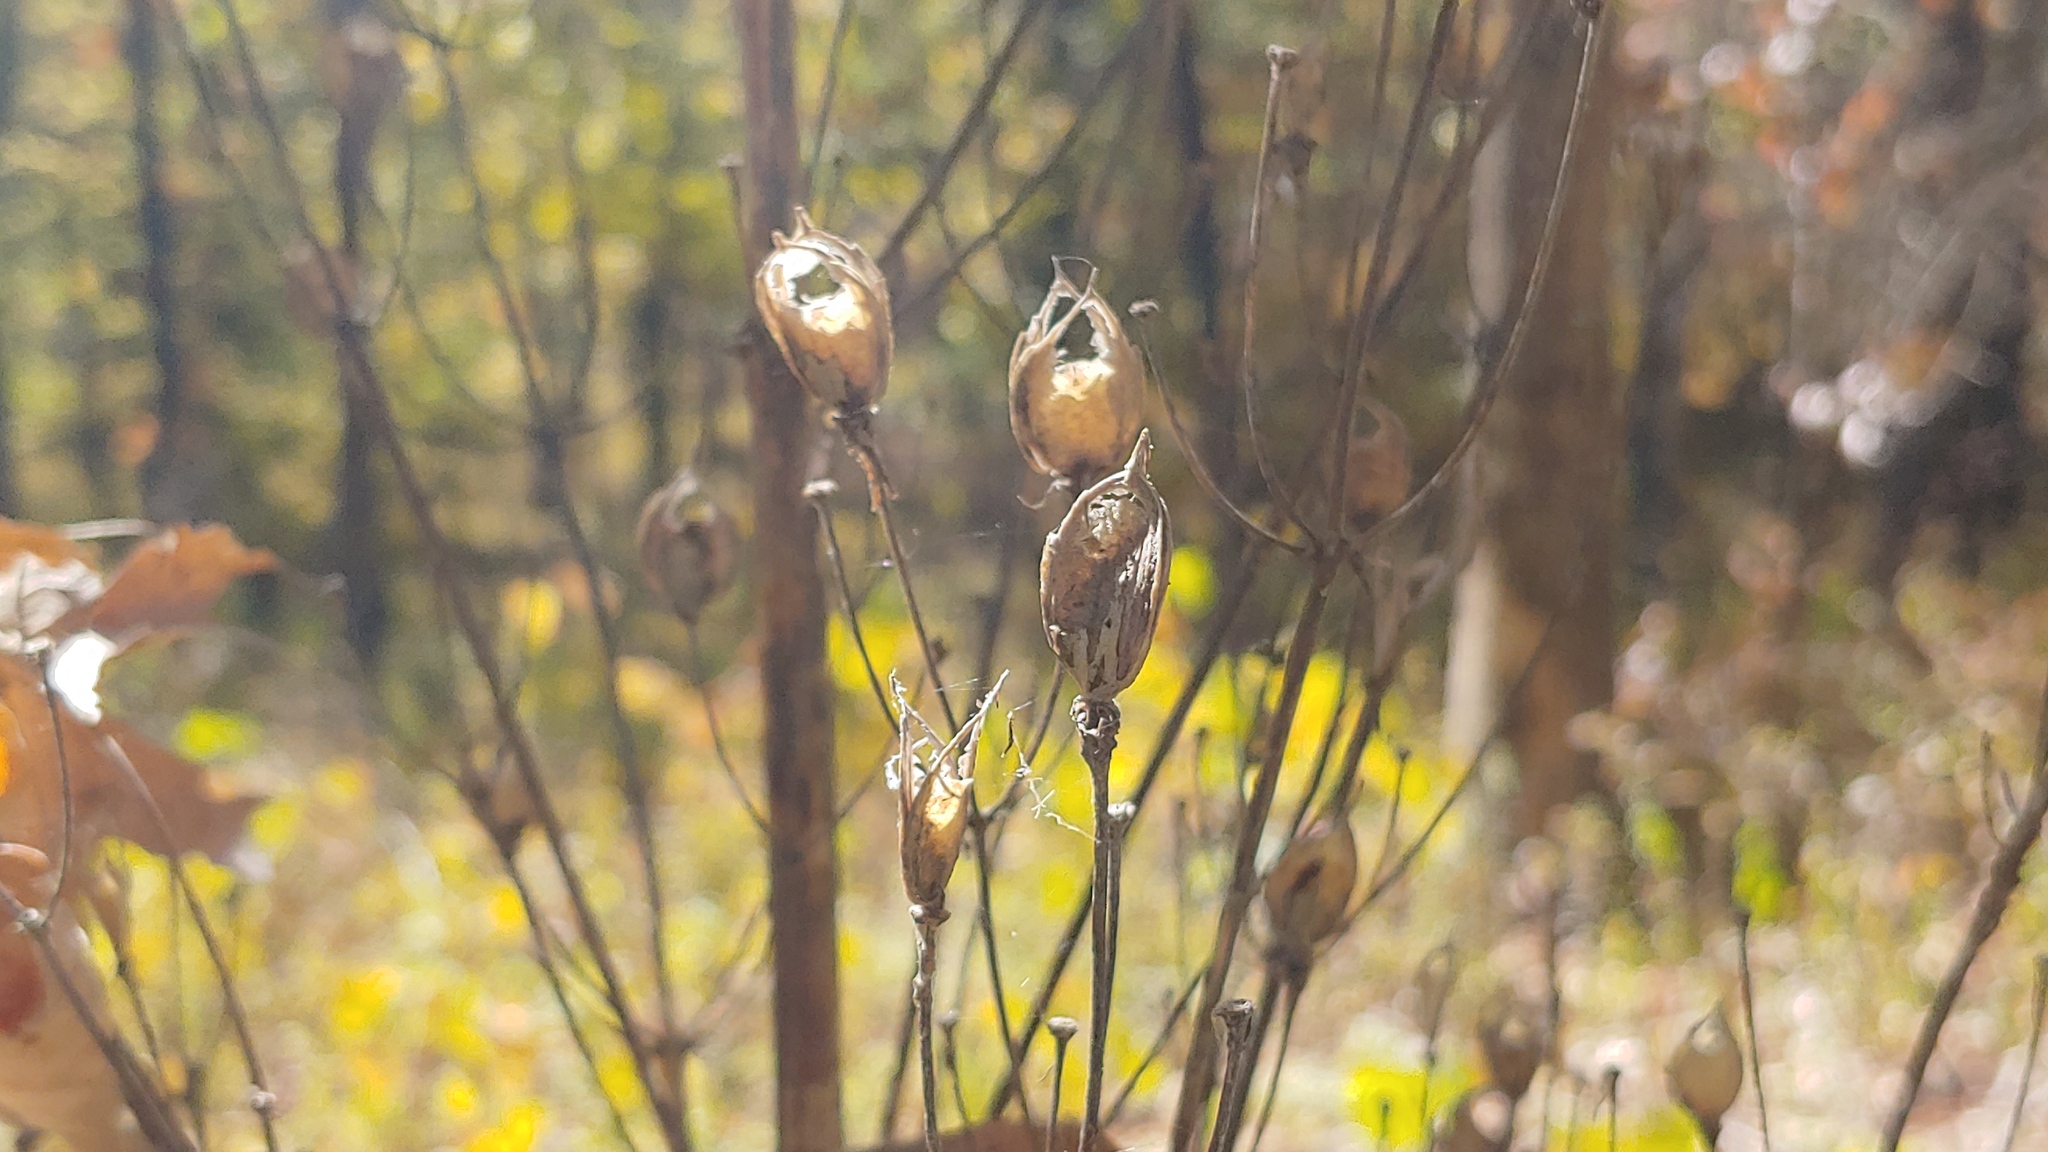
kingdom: Plantae
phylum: Tracheophyta
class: Magnoliopsida
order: Gentianales
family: Gentianaceae
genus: Frasera
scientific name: Frasera caroliniensis
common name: American columbo
